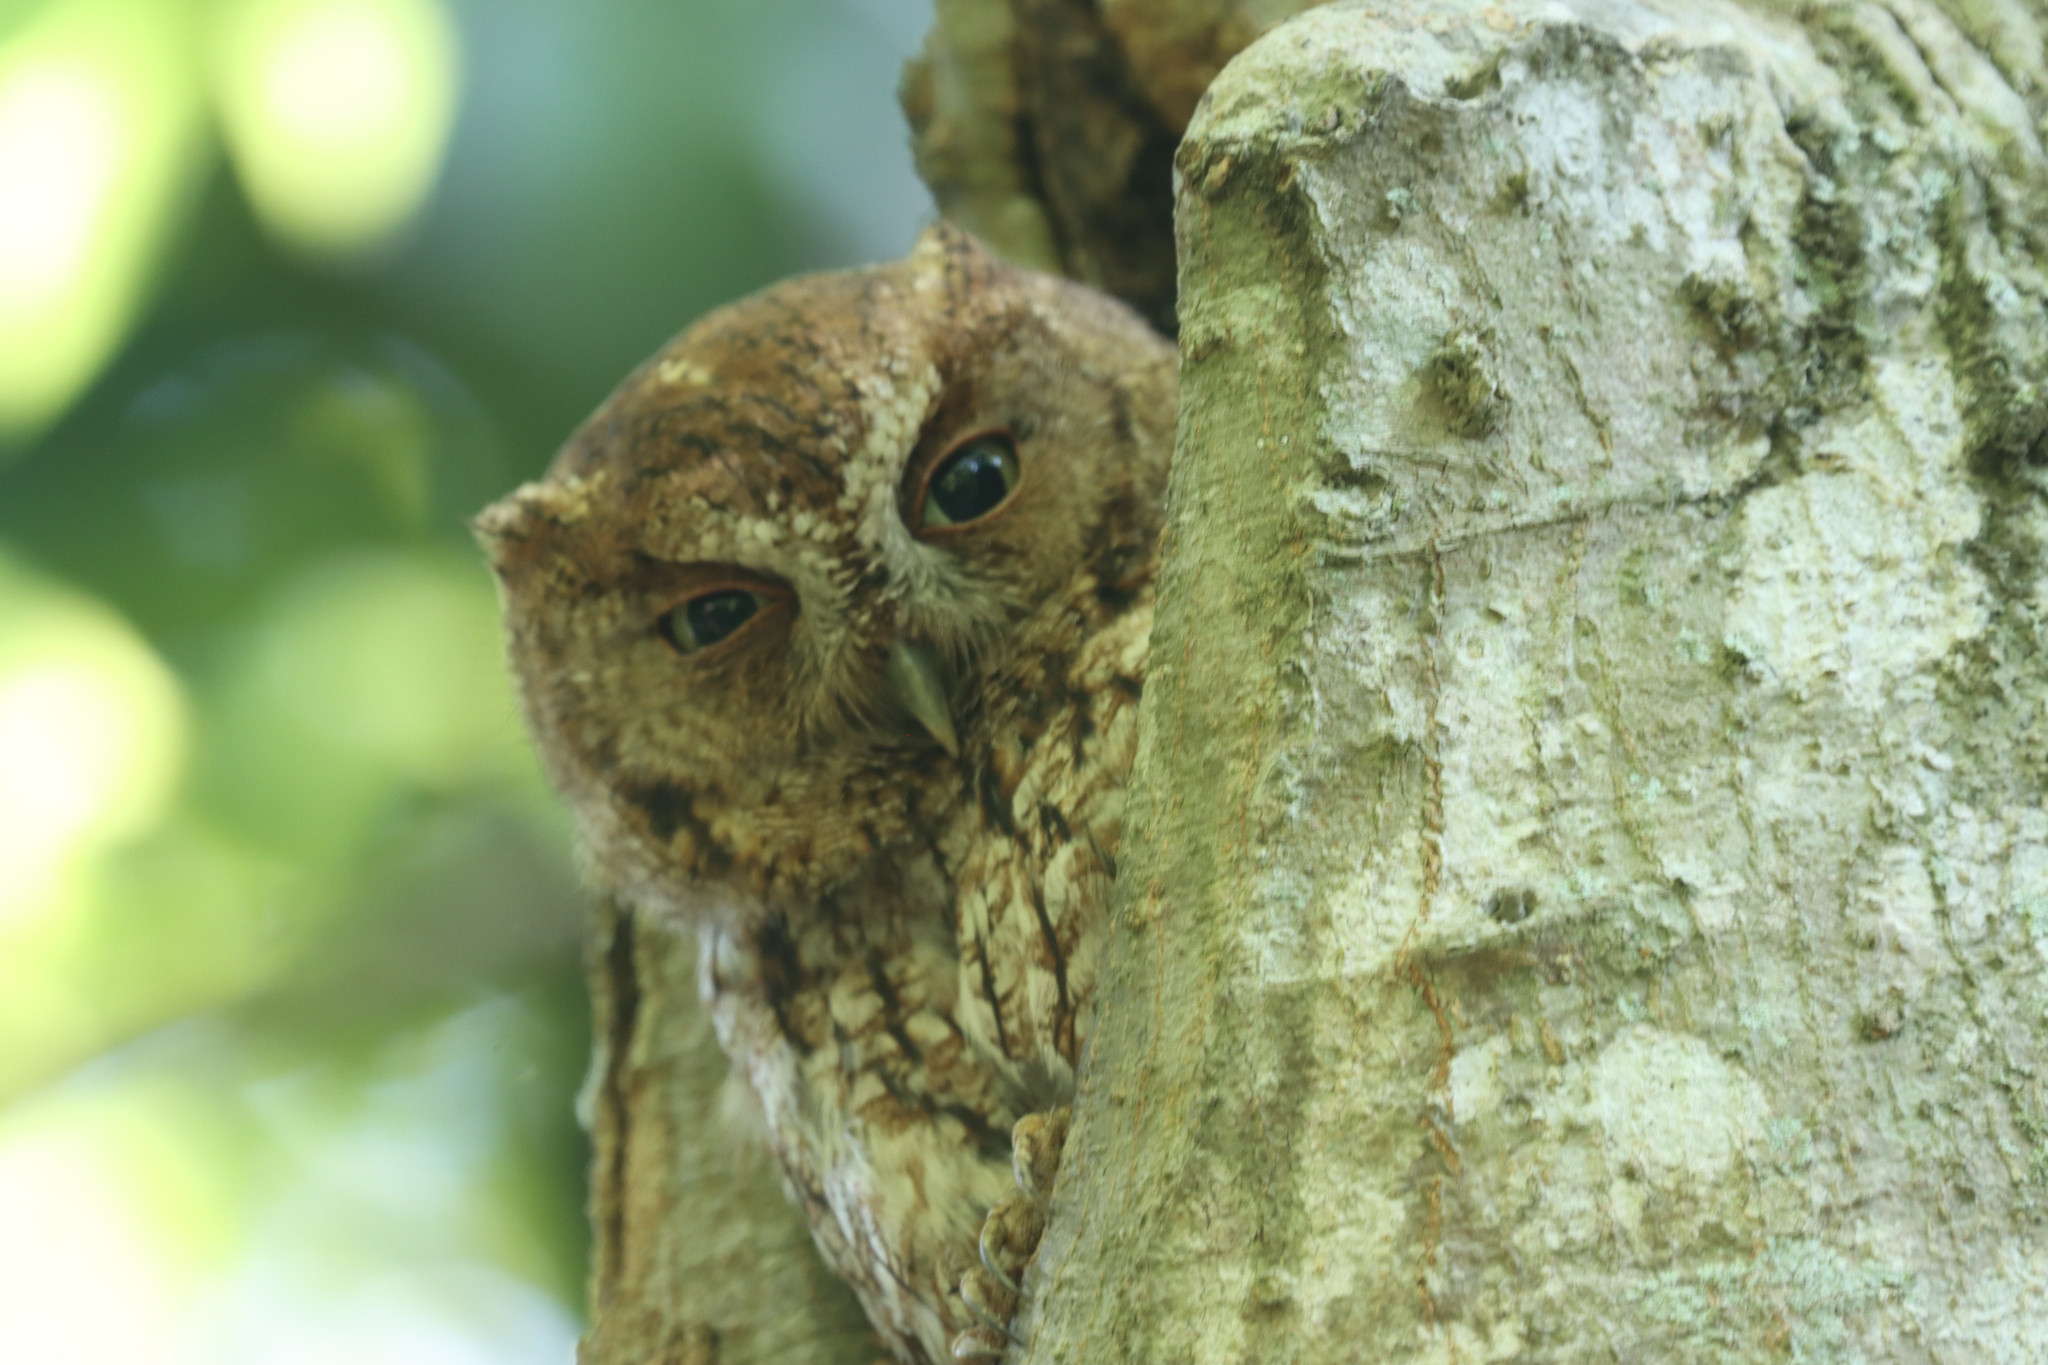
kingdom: Animalia
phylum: Chordata
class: Aves
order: Strigiformes
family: Strigidae
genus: Megascops
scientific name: Megascops asio
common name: Eastern screech-owl
